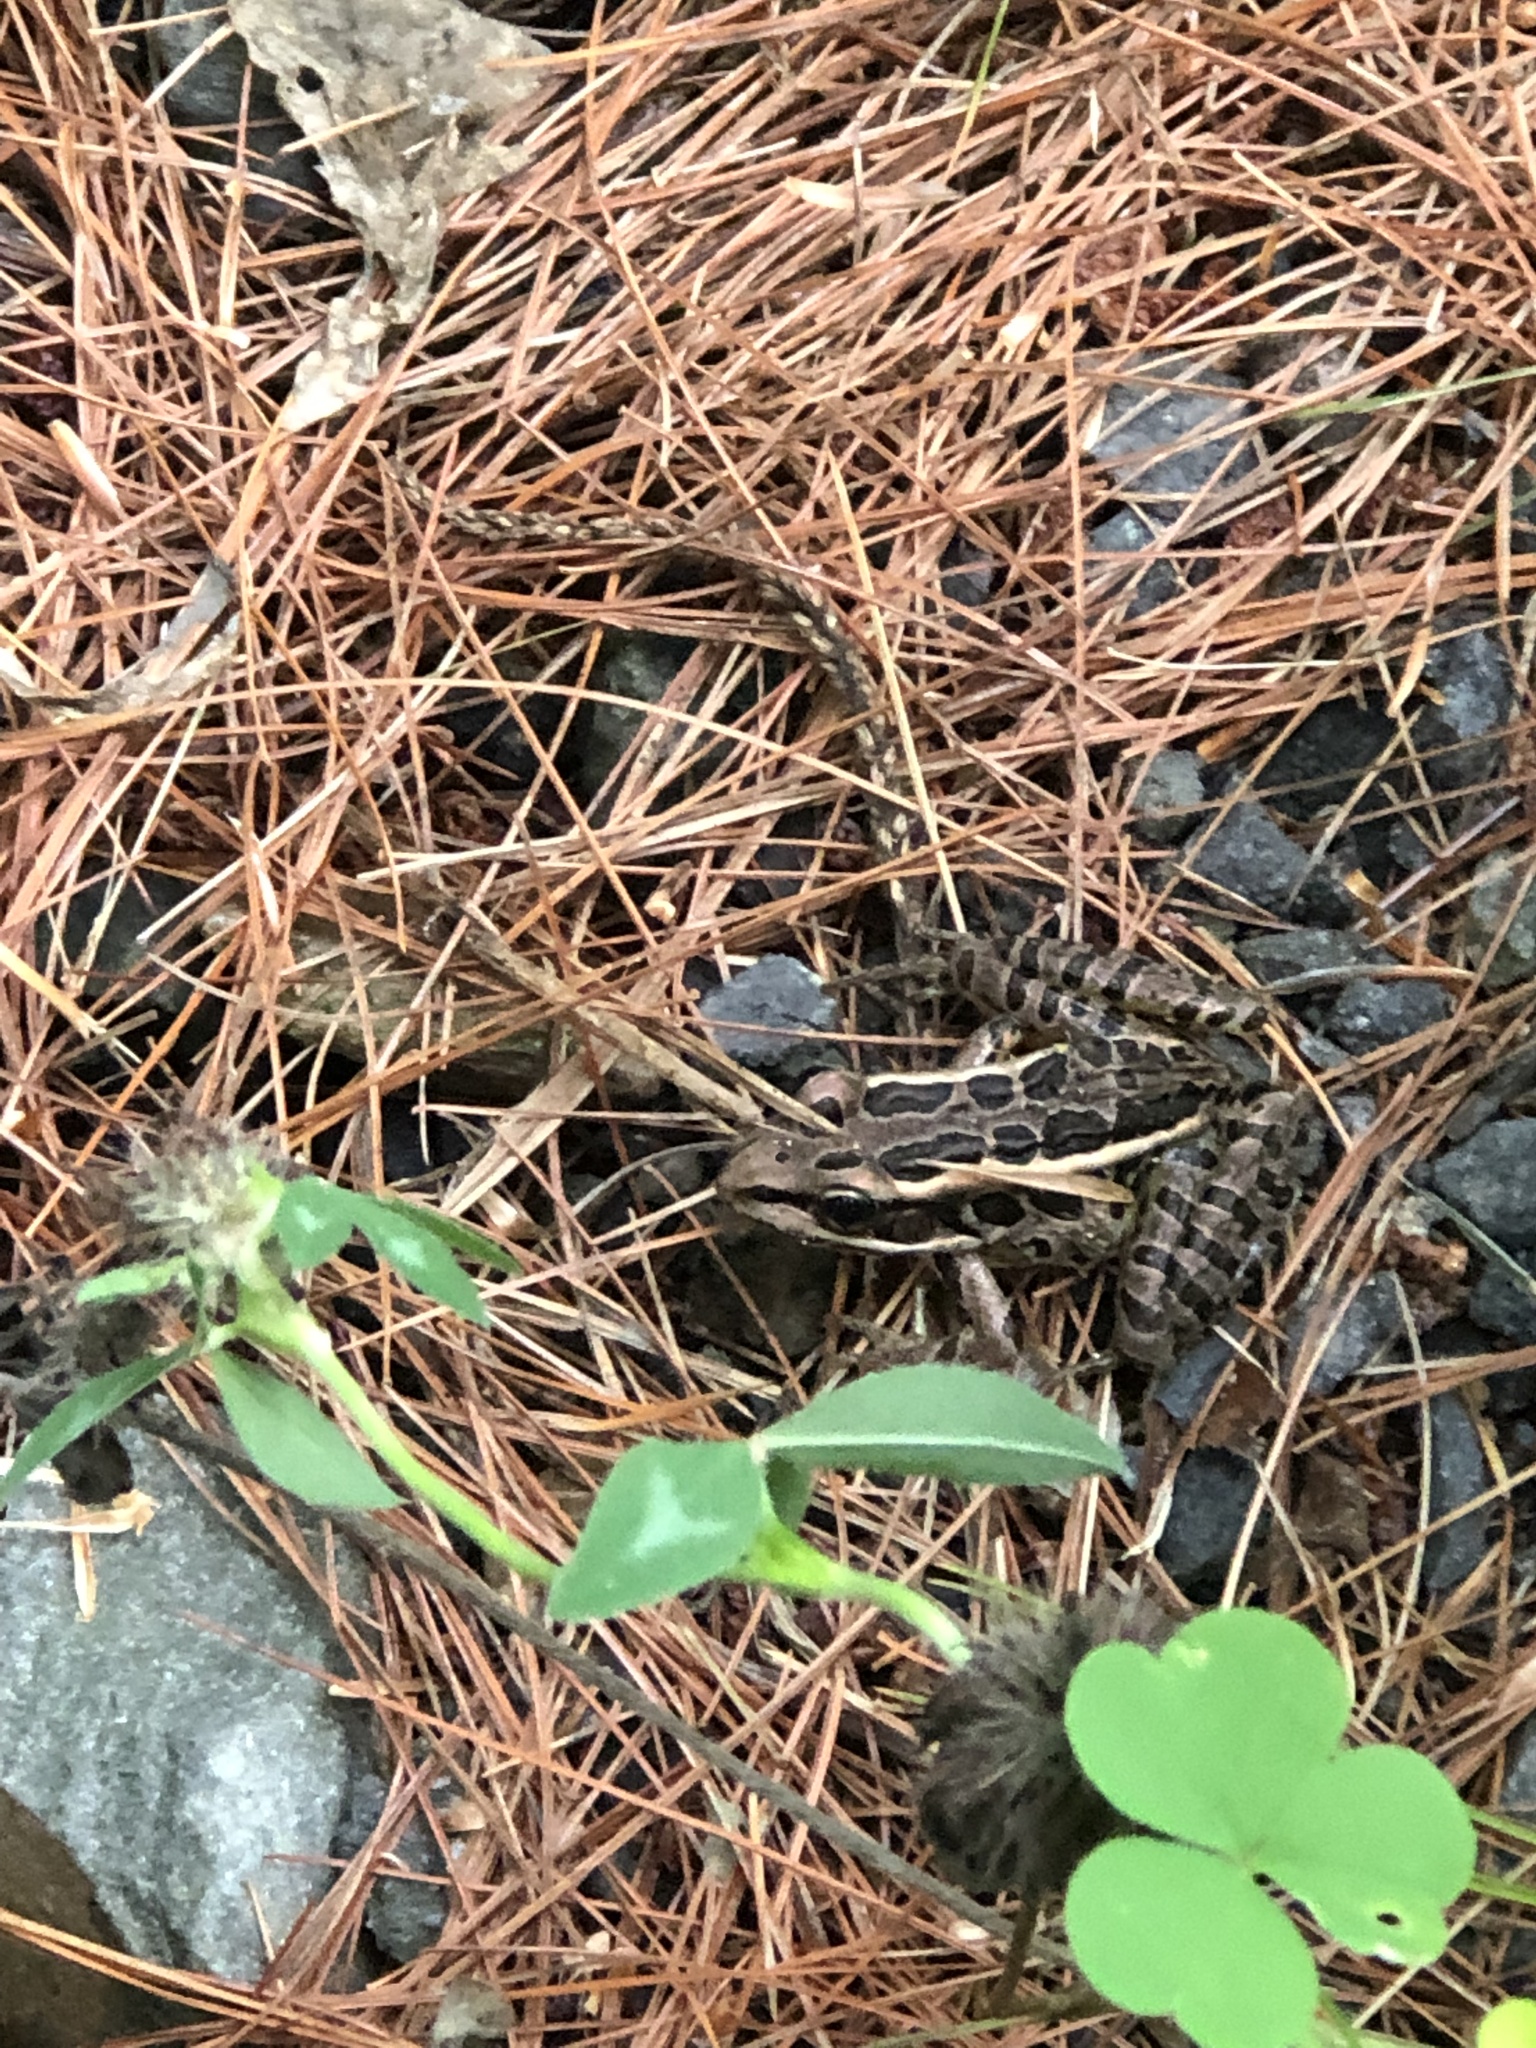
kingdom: Animalia
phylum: Chordata
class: Amphibia
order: Anura
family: Ranidae
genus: Lithobates
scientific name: Lithobates palustris
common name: Pickerel frog
